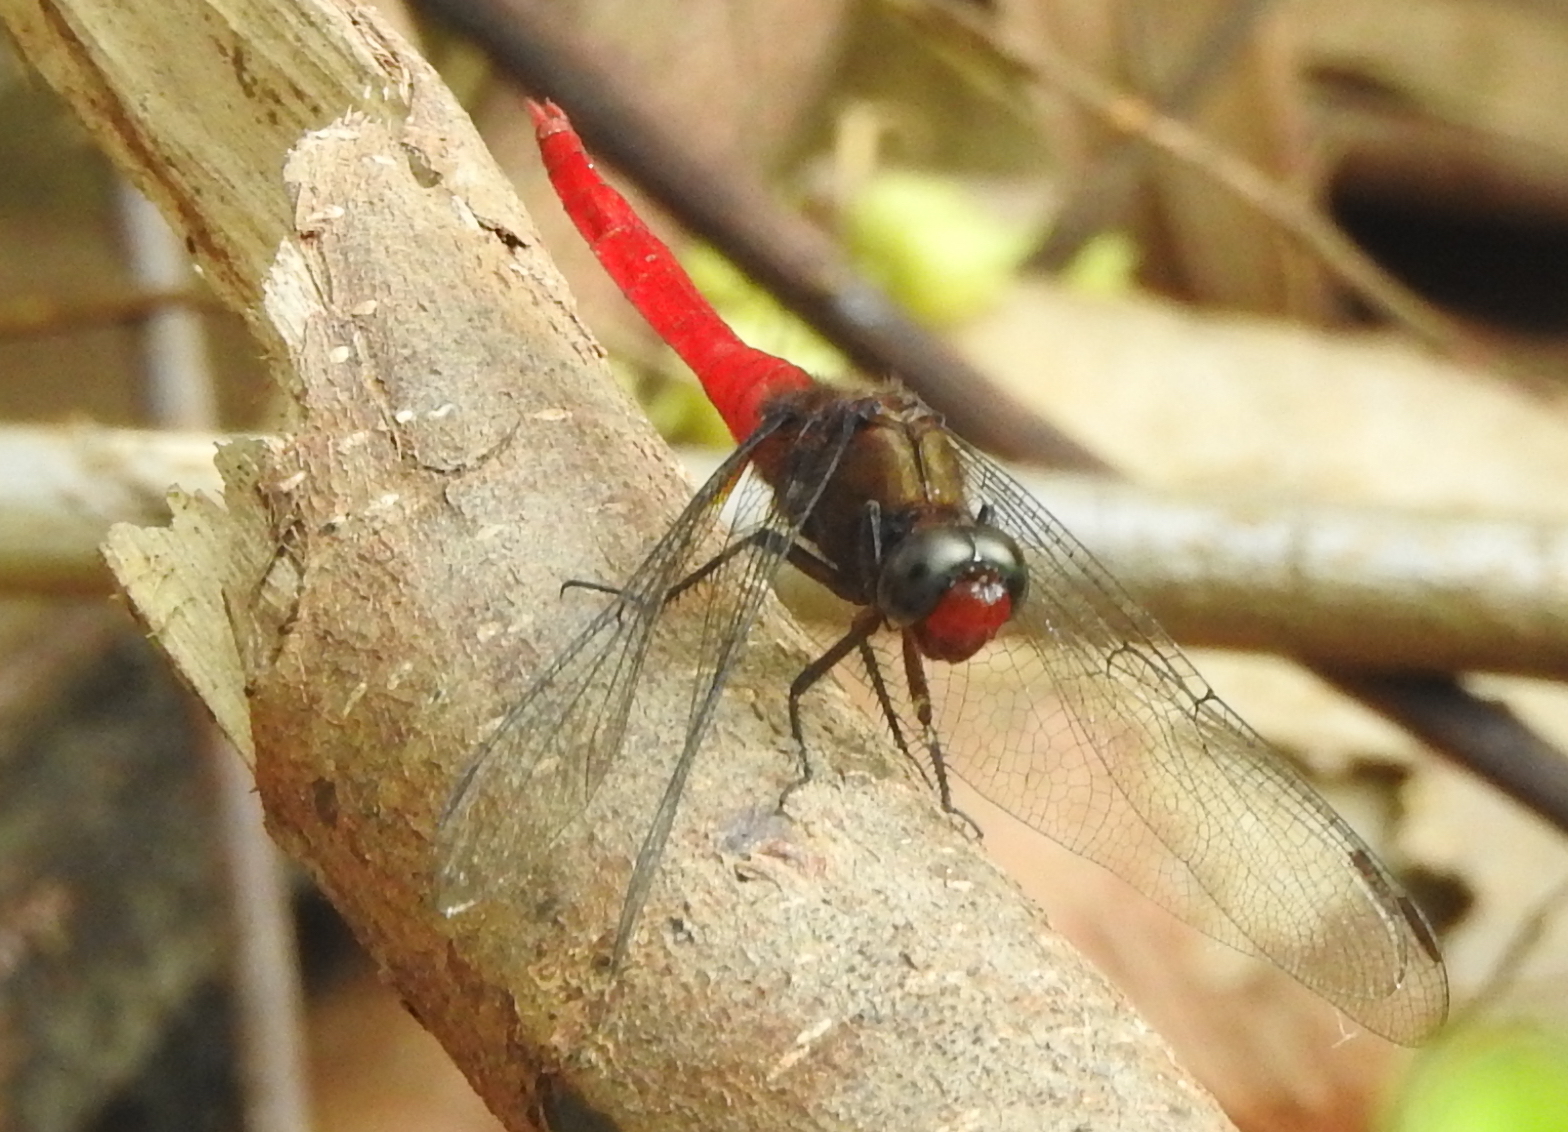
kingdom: Animalia
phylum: Arthropoda
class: Insecta
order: Odonata
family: Libellulidae
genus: Orthetrum
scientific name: Orthetrum chrysis
